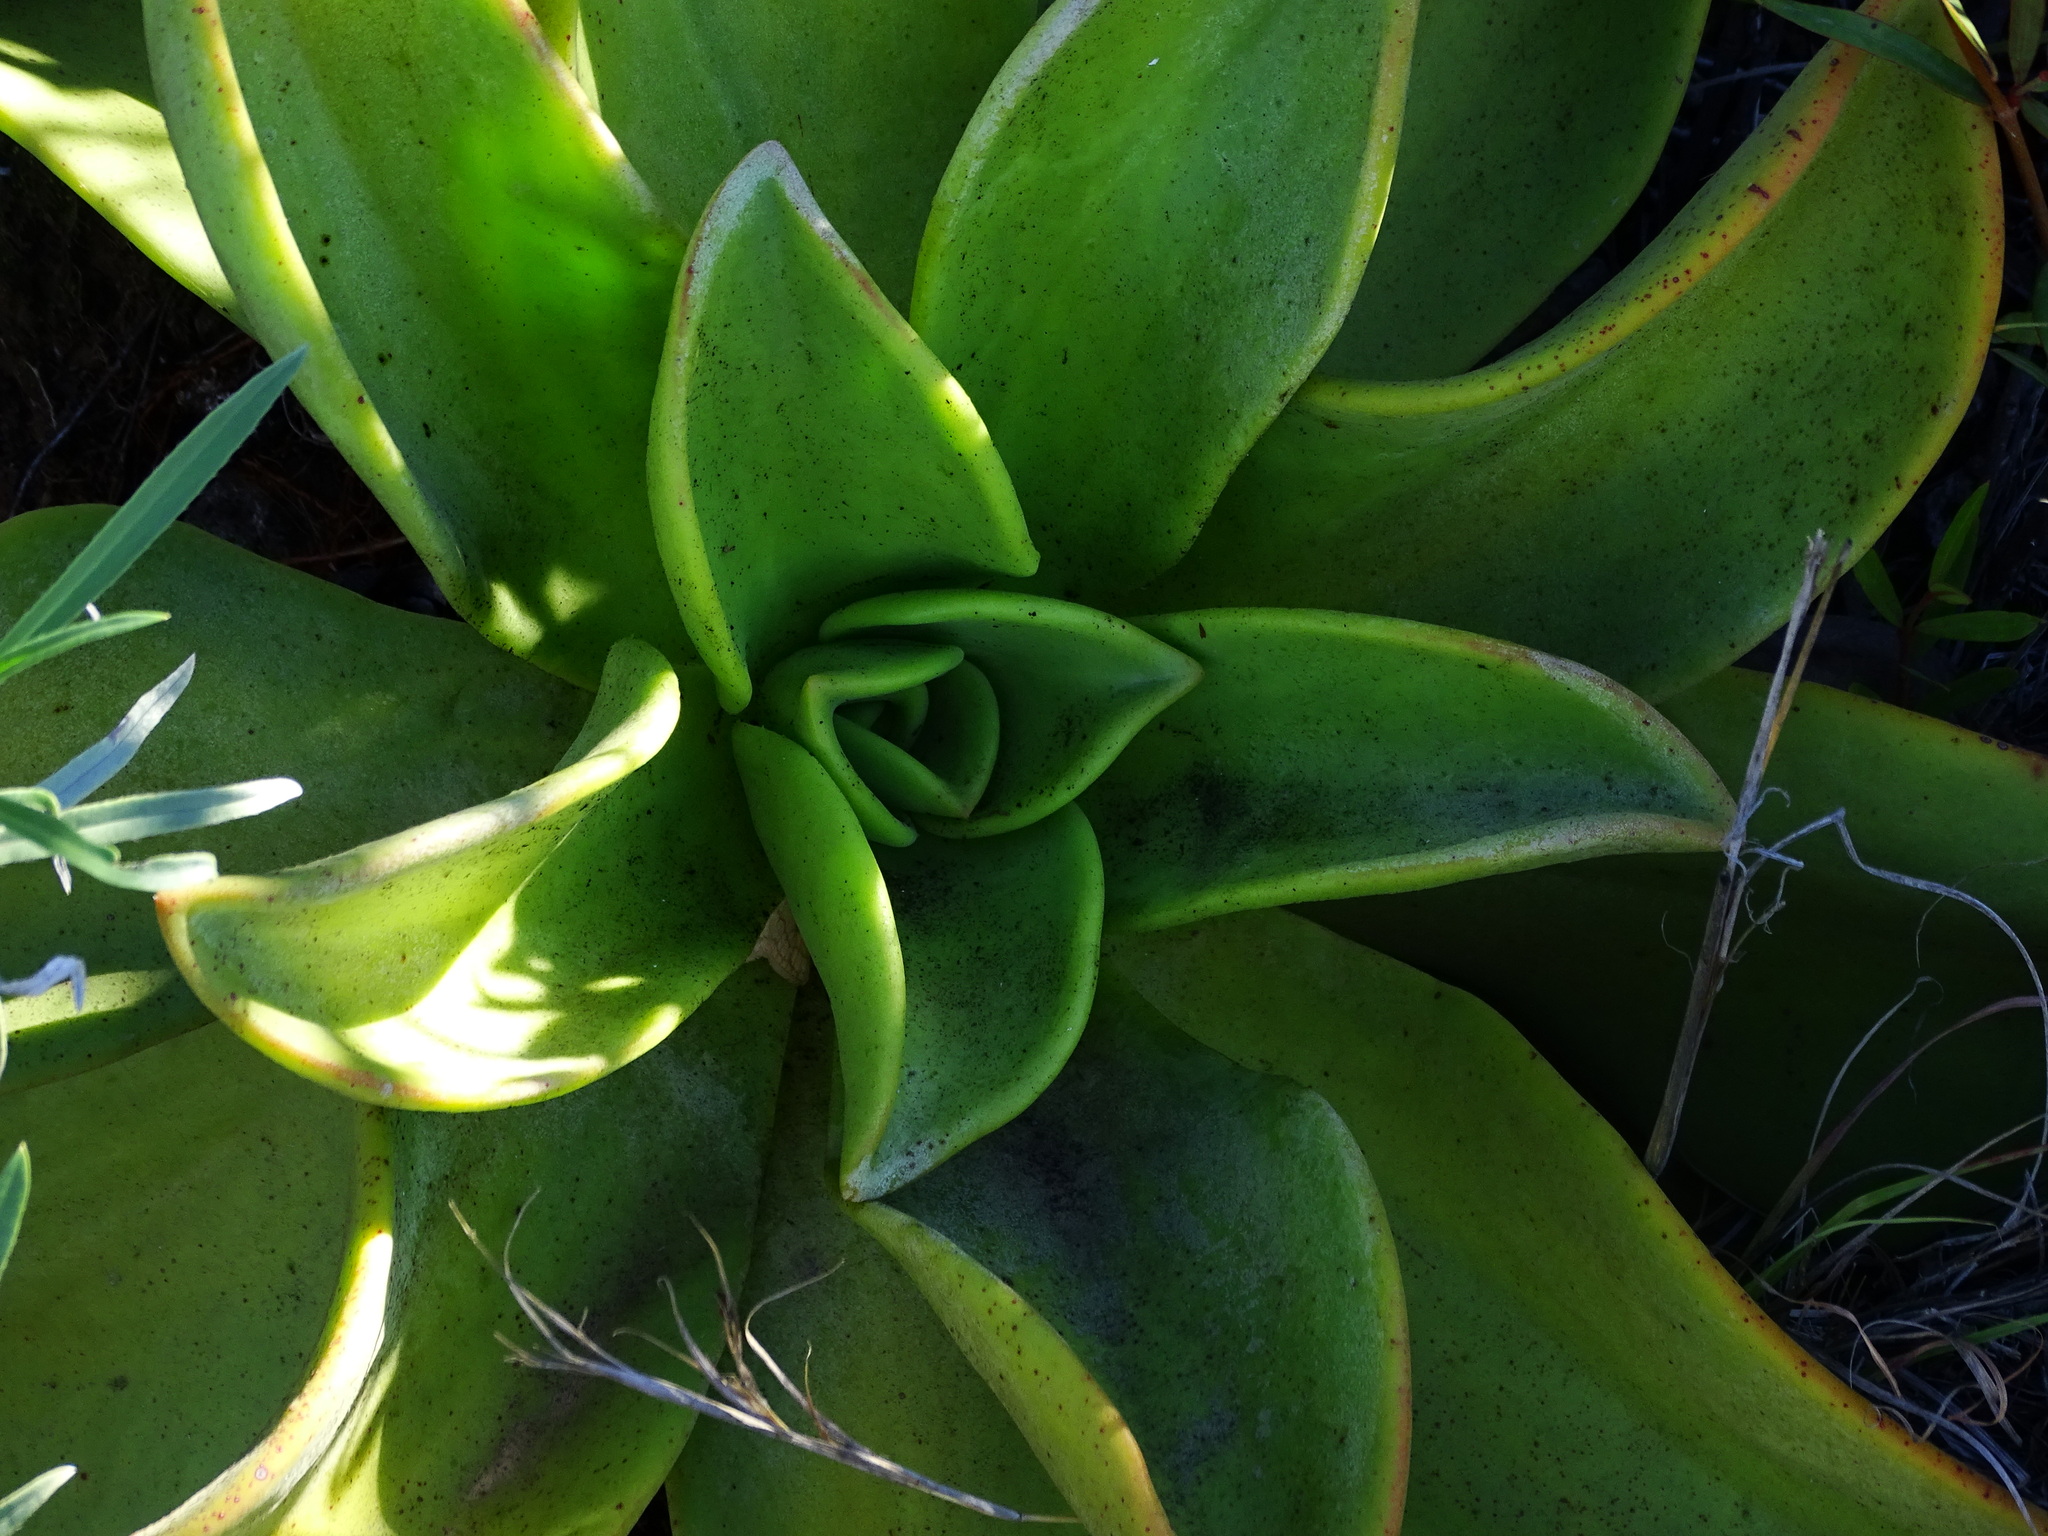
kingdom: Plantae
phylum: Tracheophyta
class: Magnoliopsida
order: Saxifragales
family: Crassulaceae
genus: Aeonium
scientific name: Aeonium nobile
